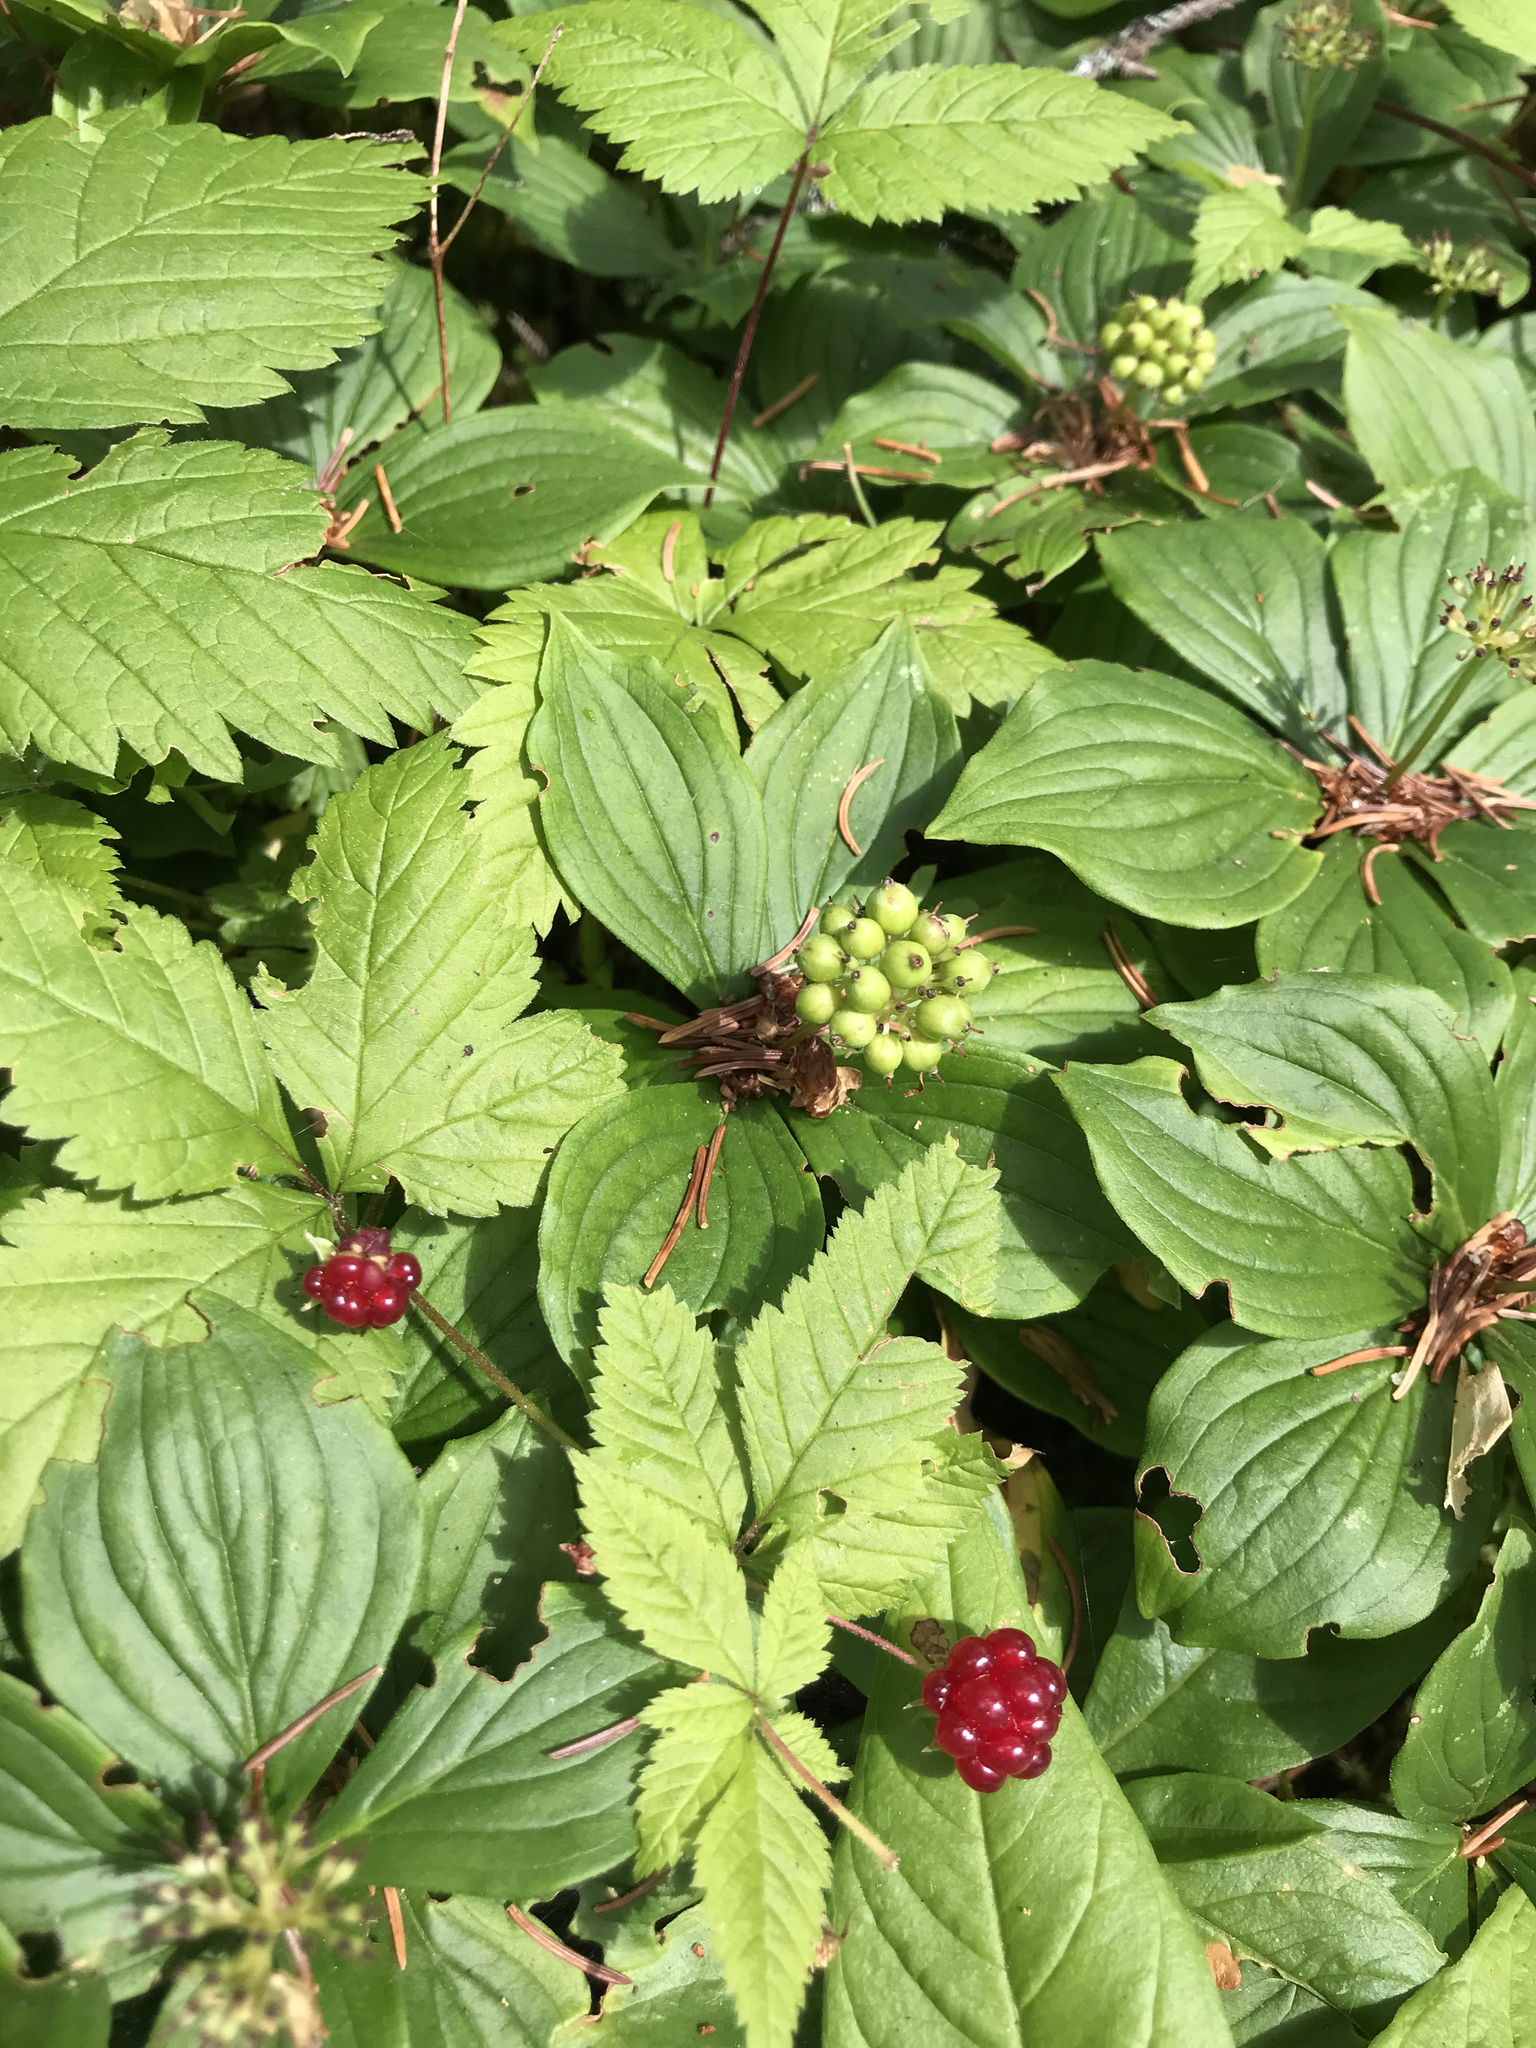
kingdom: Plantae
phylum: Tracheophyta
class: Magnoliopsida
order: Rosales
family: Rosaceae
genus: Rubus
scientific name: Rubus pubescens
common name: Dwarf raspberry
